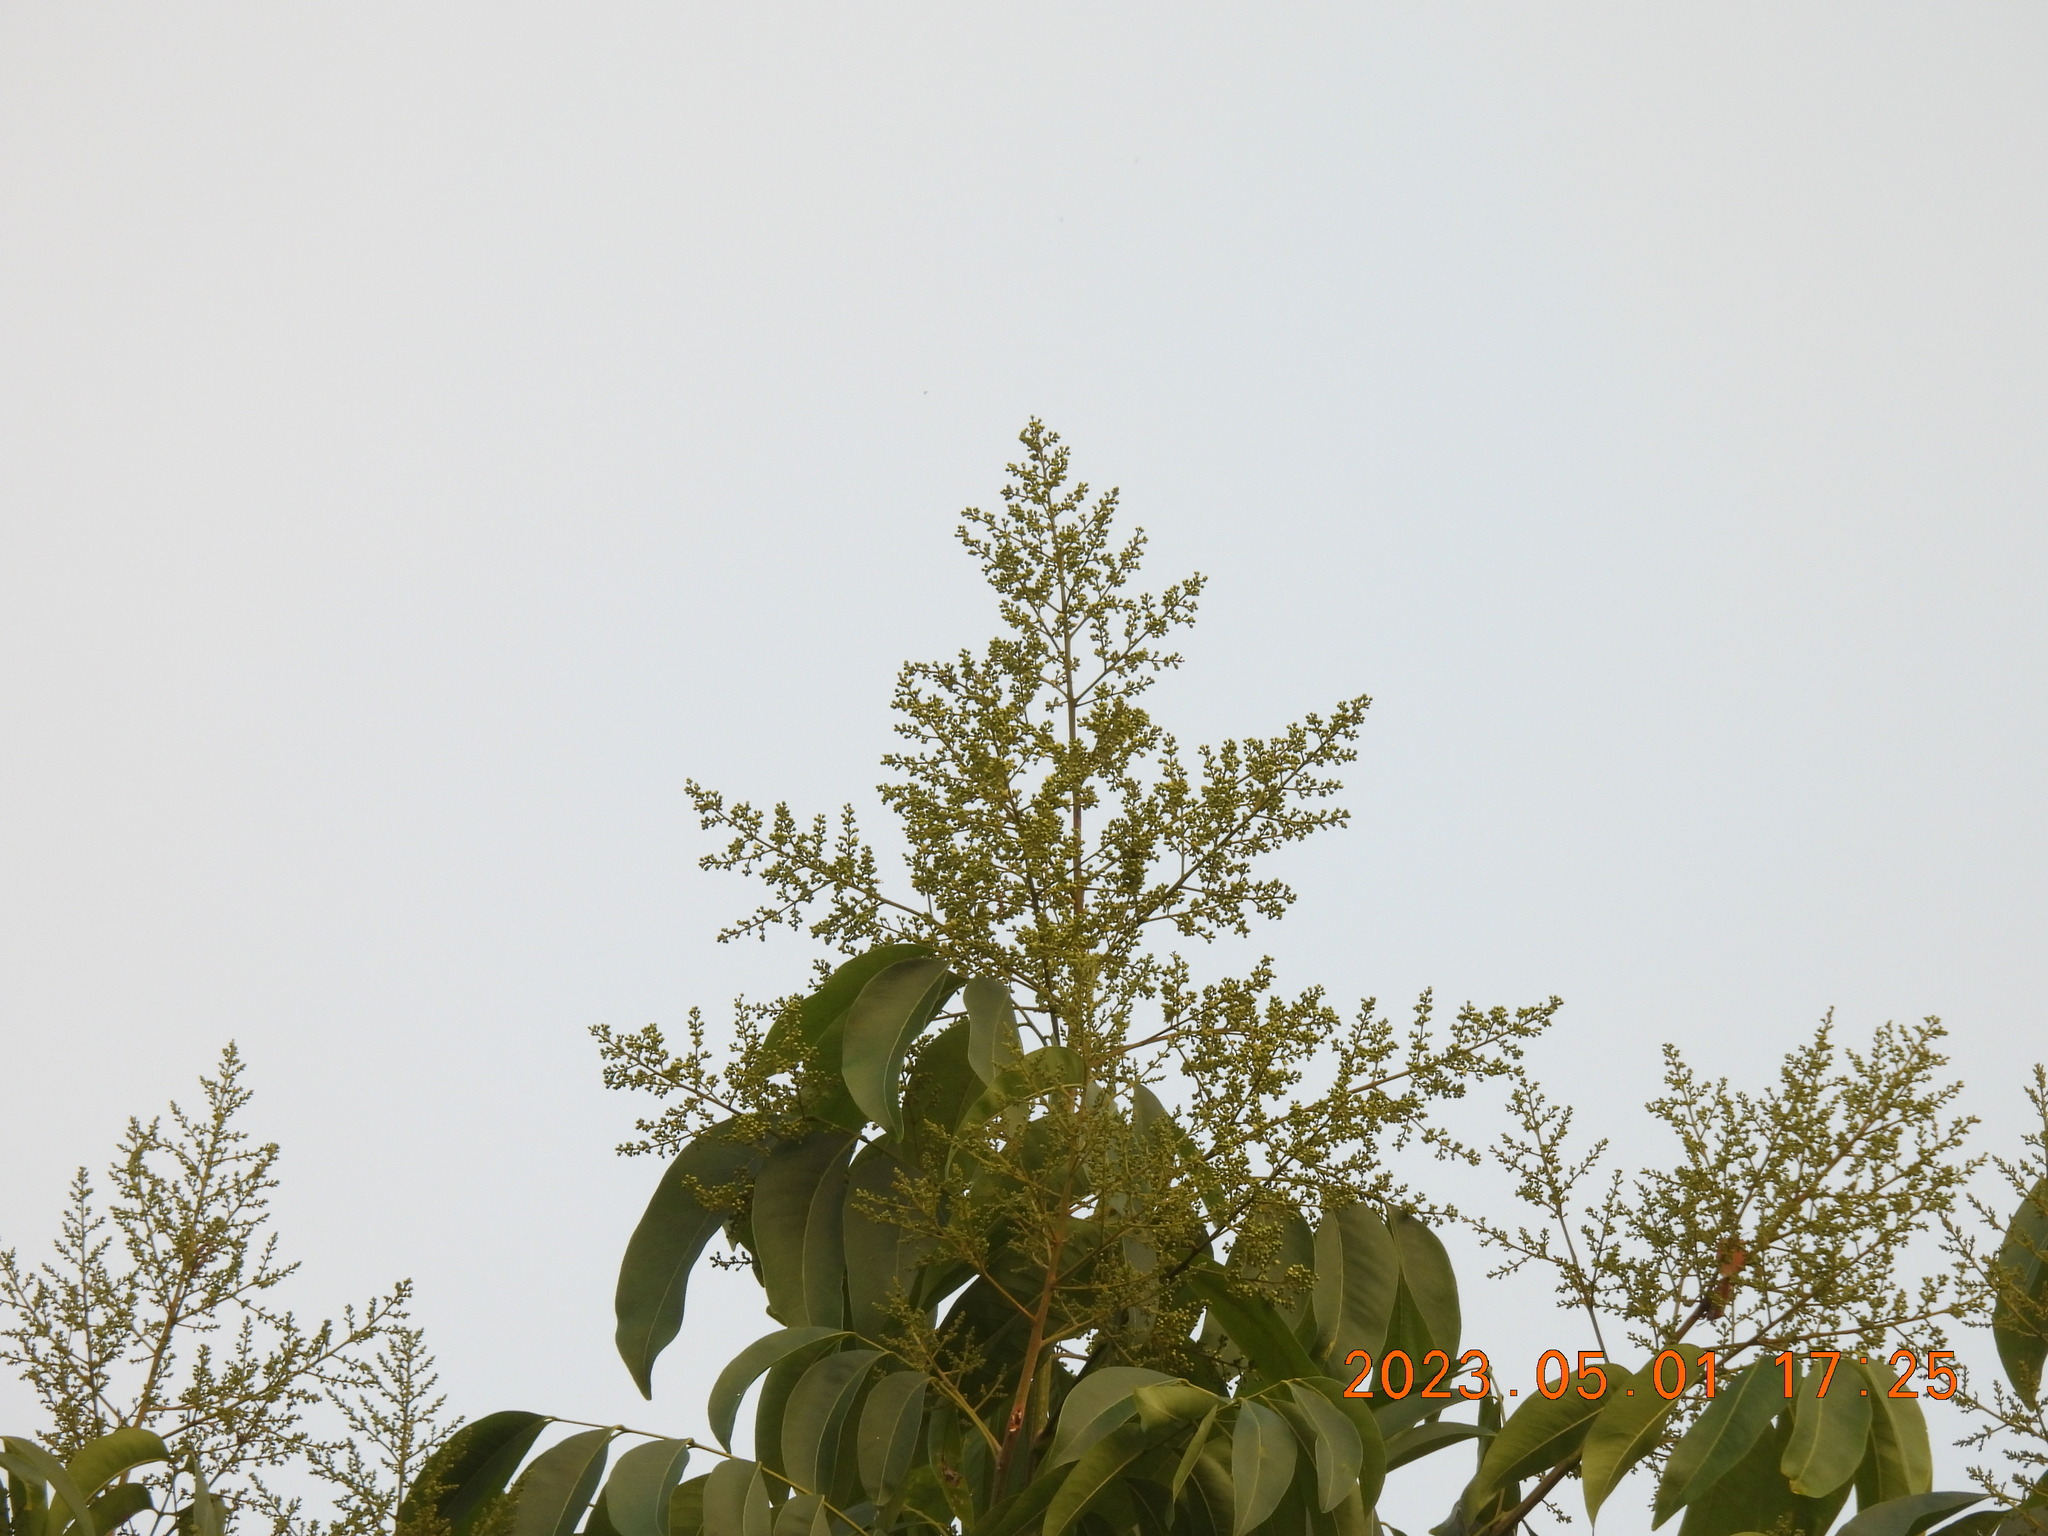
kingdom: Plantae
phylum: Tracheophyta
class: Magnoliopsida
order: Sapindales
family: Sapindaceae
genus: Sapindus
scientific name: Sapindus mukorossi
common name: Chinese soapberry
